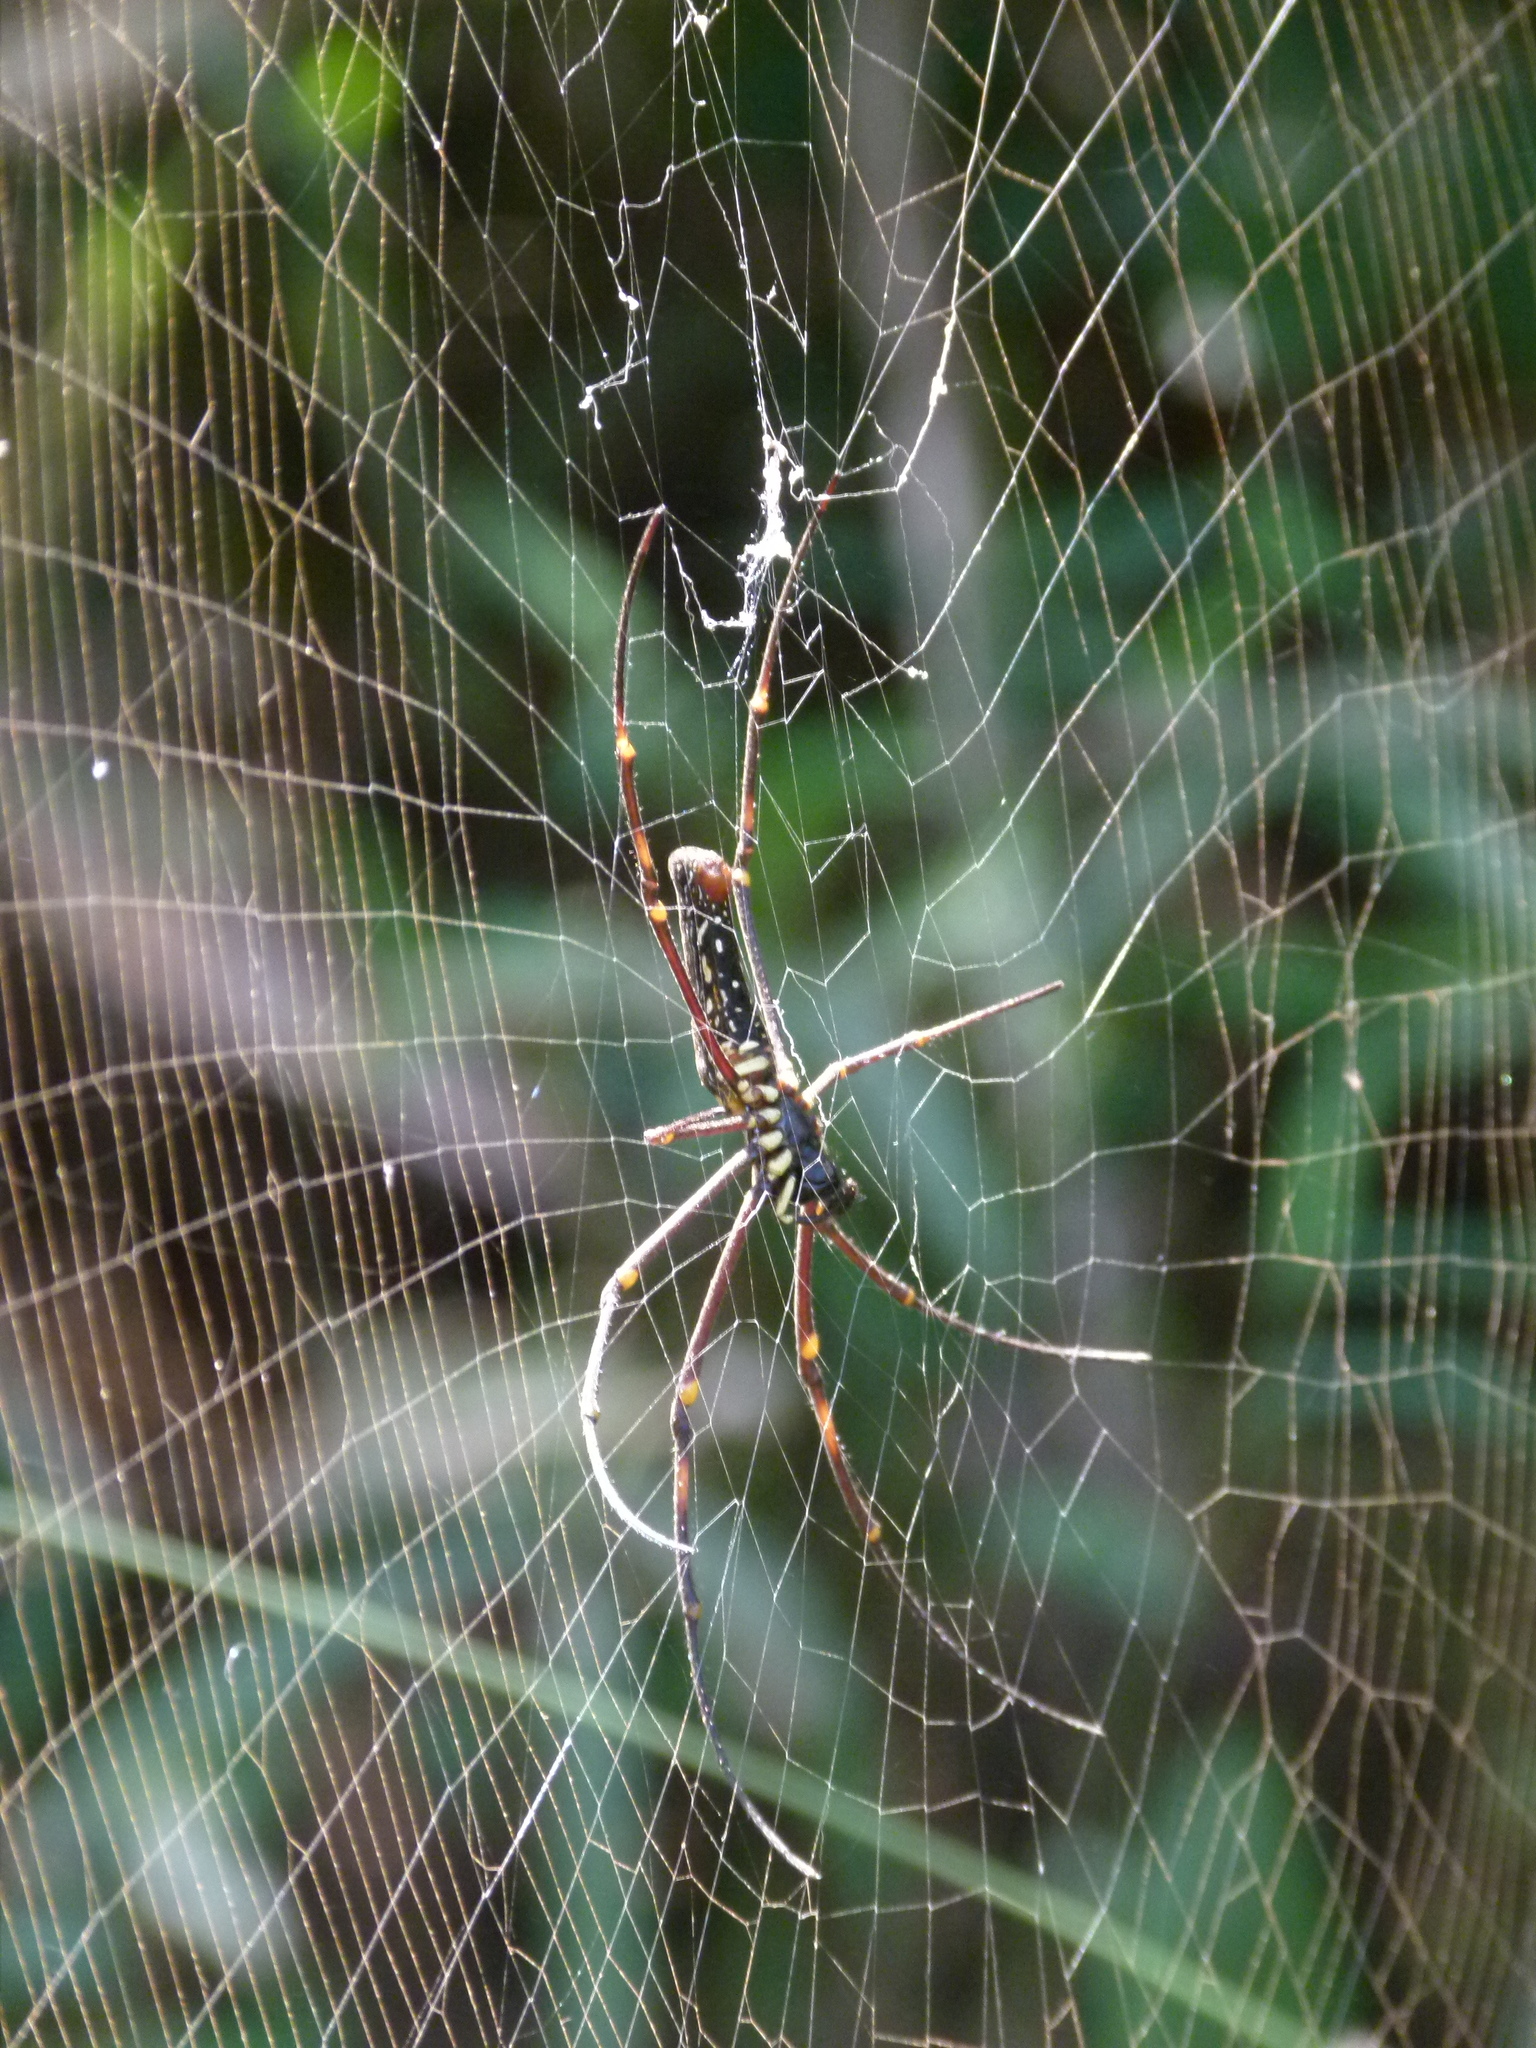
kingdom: Animalia
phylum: Arthropoda
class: Arachnida
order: Araneae
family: Araneidae
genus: Nephila
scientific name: Nephila pilipes
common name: Giant golden orb weaver
